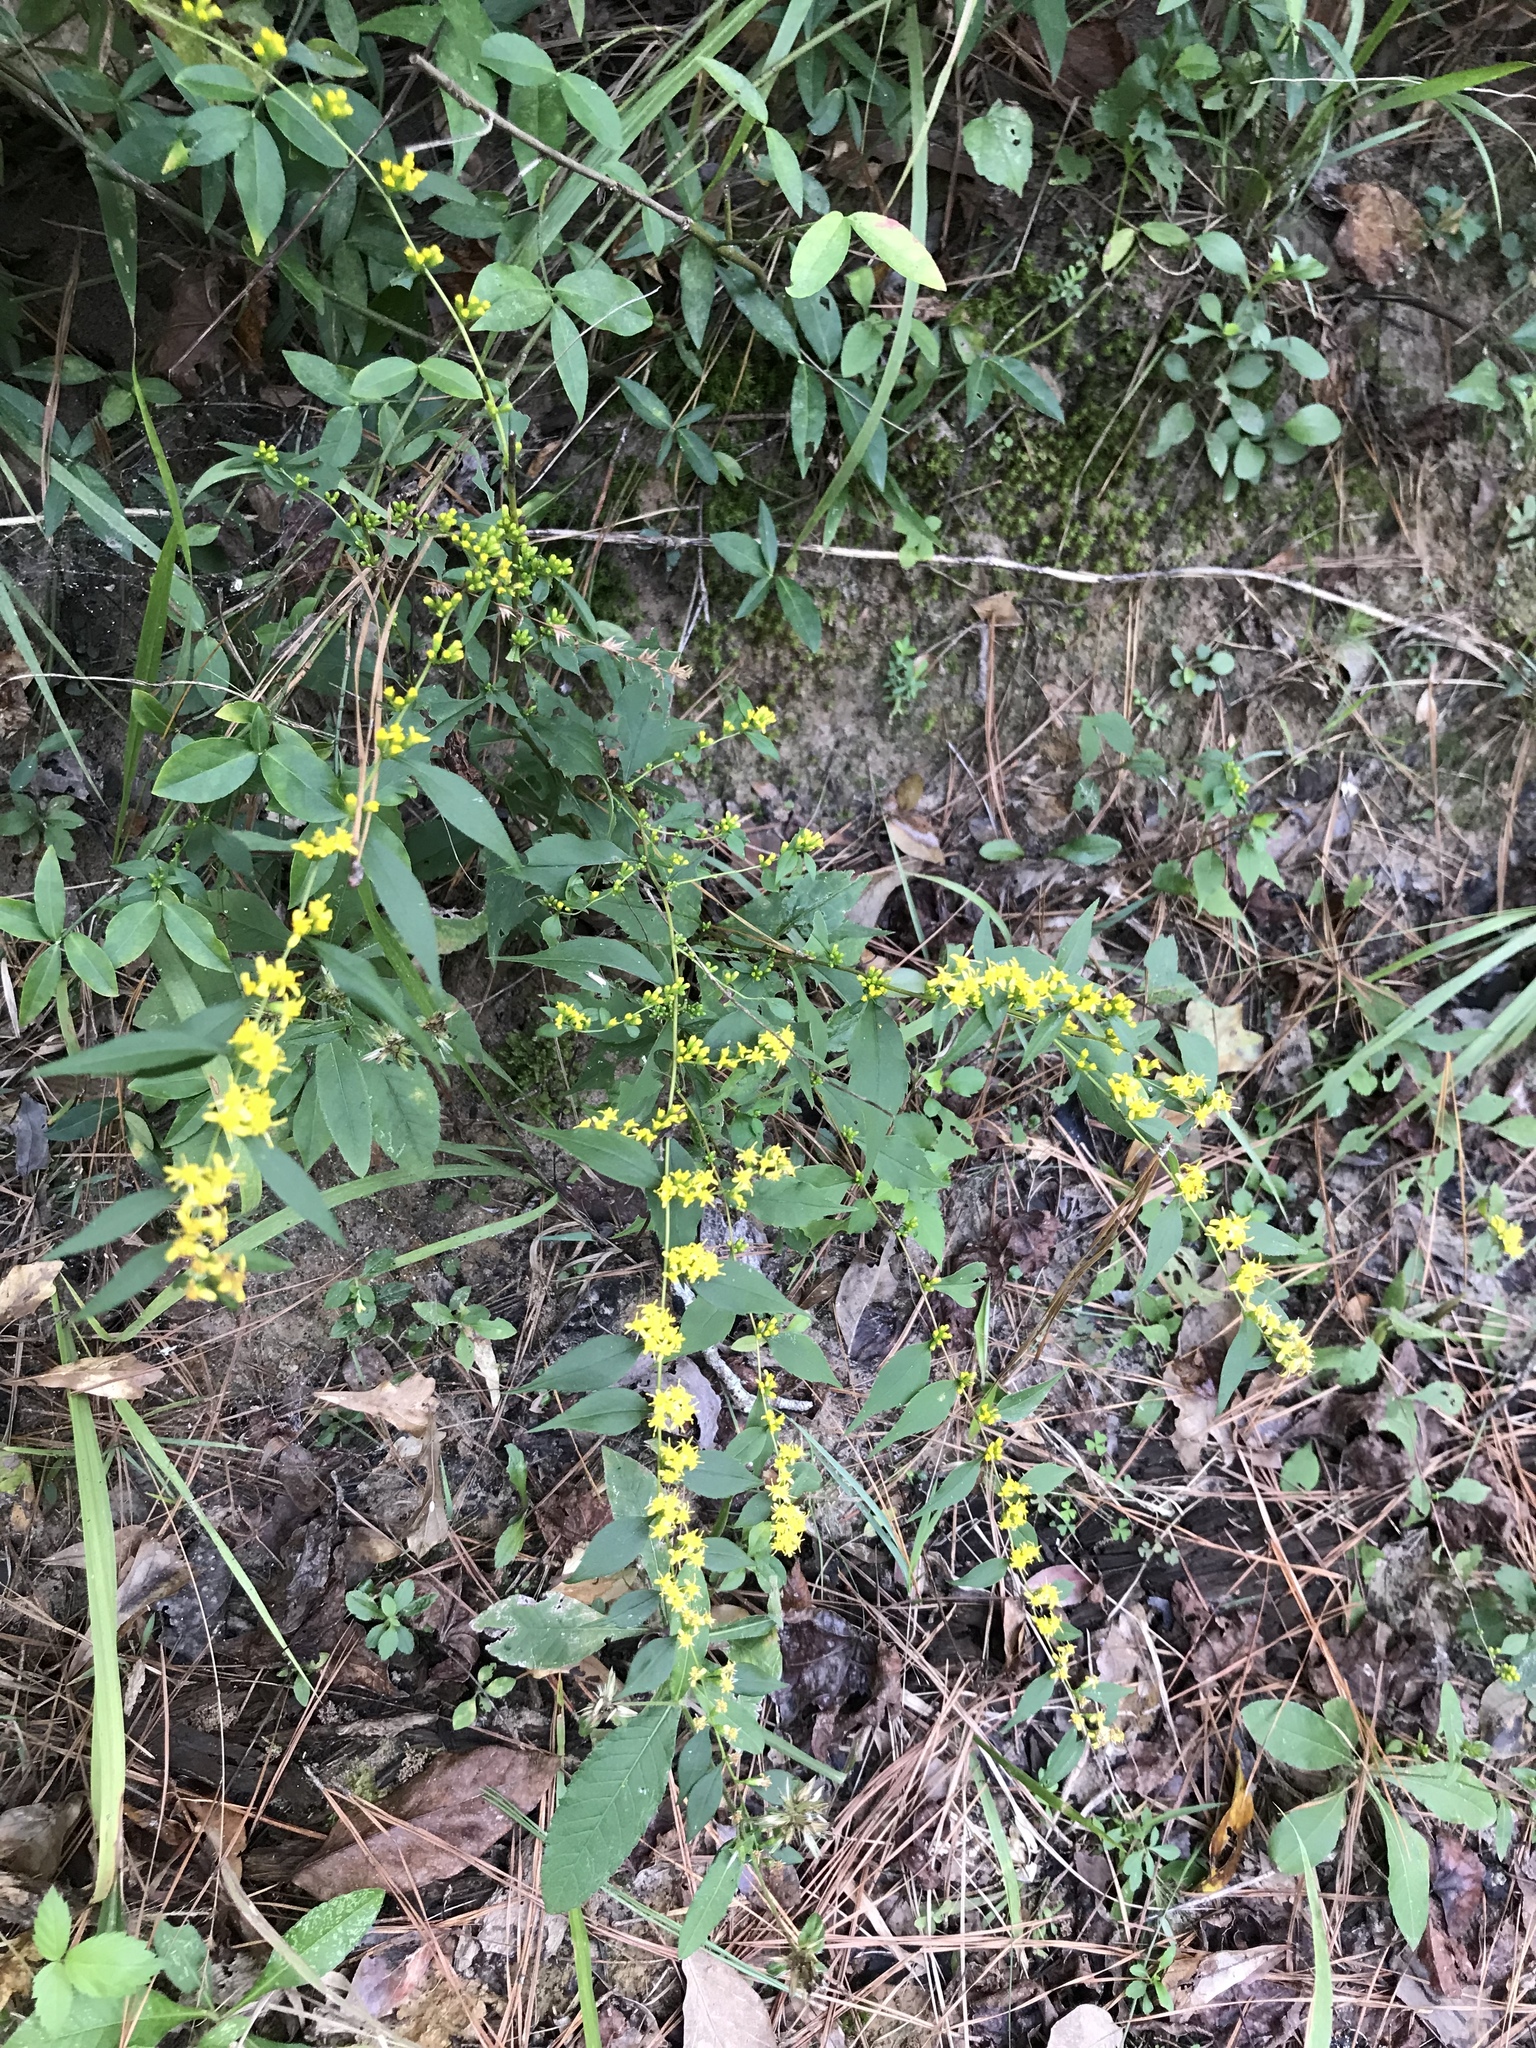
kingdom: Plantae
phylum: Tracheophyta
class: Magnoliopsida
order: Asterales
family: Asteraceae
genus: Solidago
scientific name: Solidago caesia
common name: Woodland goldenrod
